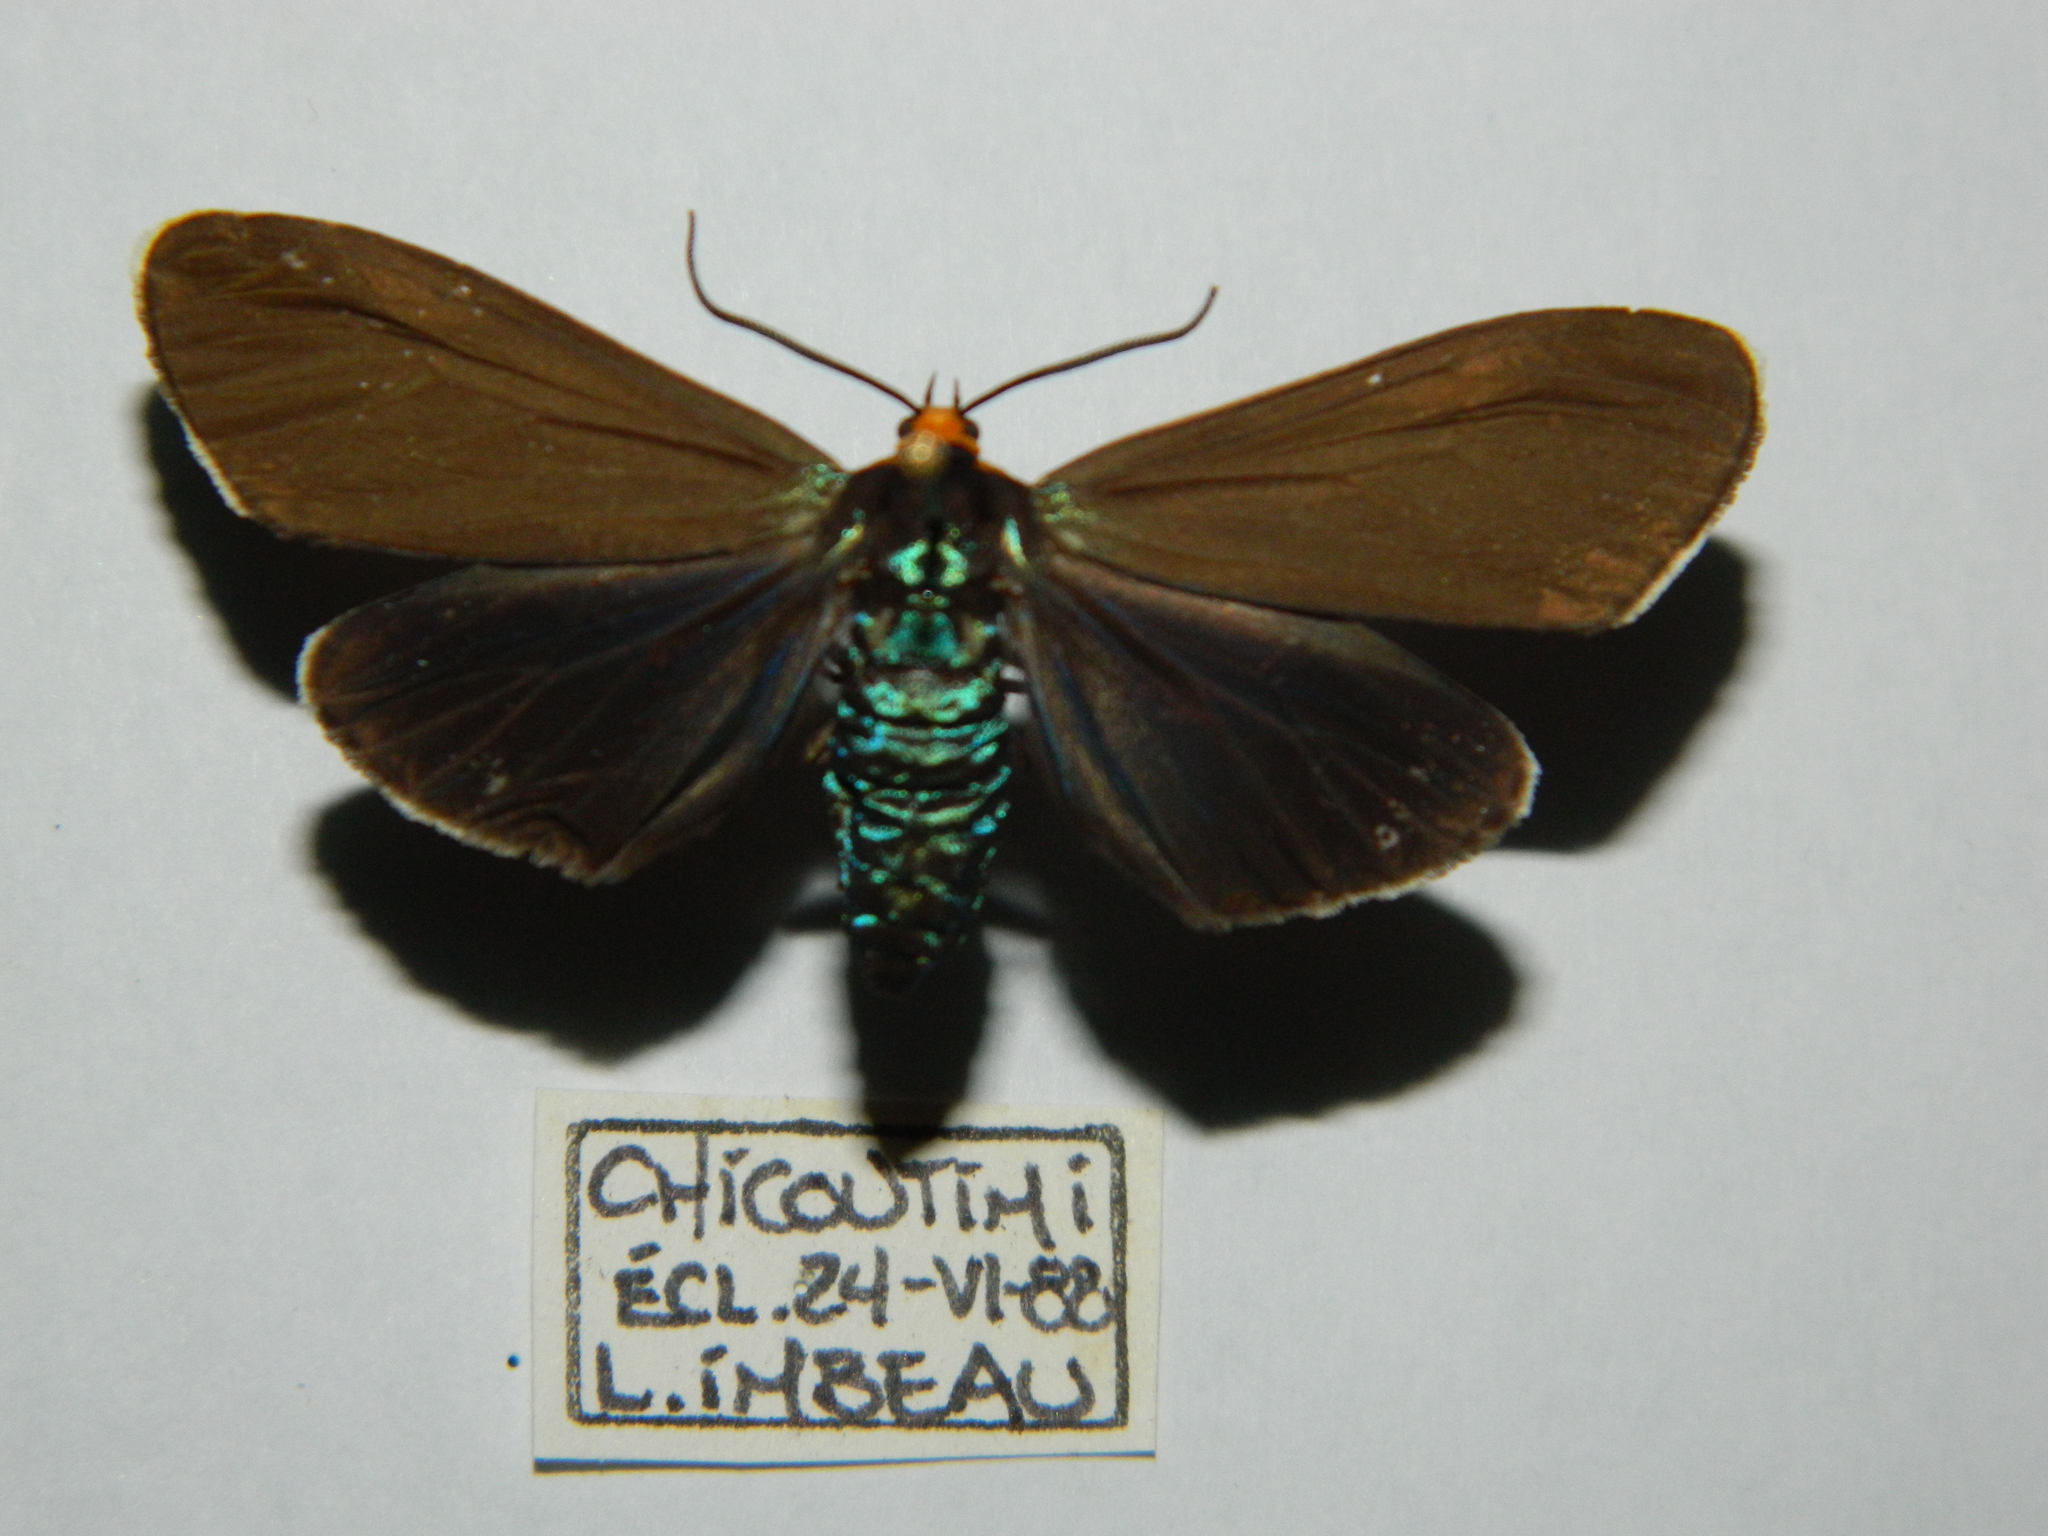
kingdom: Animalia
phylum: Arthropoda
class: Insecta
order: Lepidoptera
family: Erebidae
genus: Ctenucha
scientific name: Ctenucha virginica
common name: Virginia ctenucha moth
